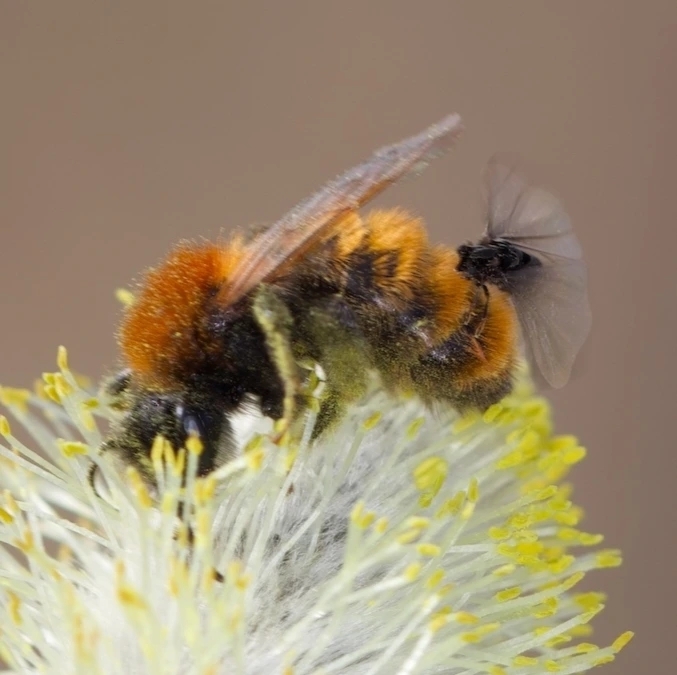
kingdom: Animalia
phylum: Arthropoda
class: Insecta
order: Hymenoptera
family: Andrenidae
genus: Andrena
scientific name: Andrena fulva
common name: Tawny mining bee
